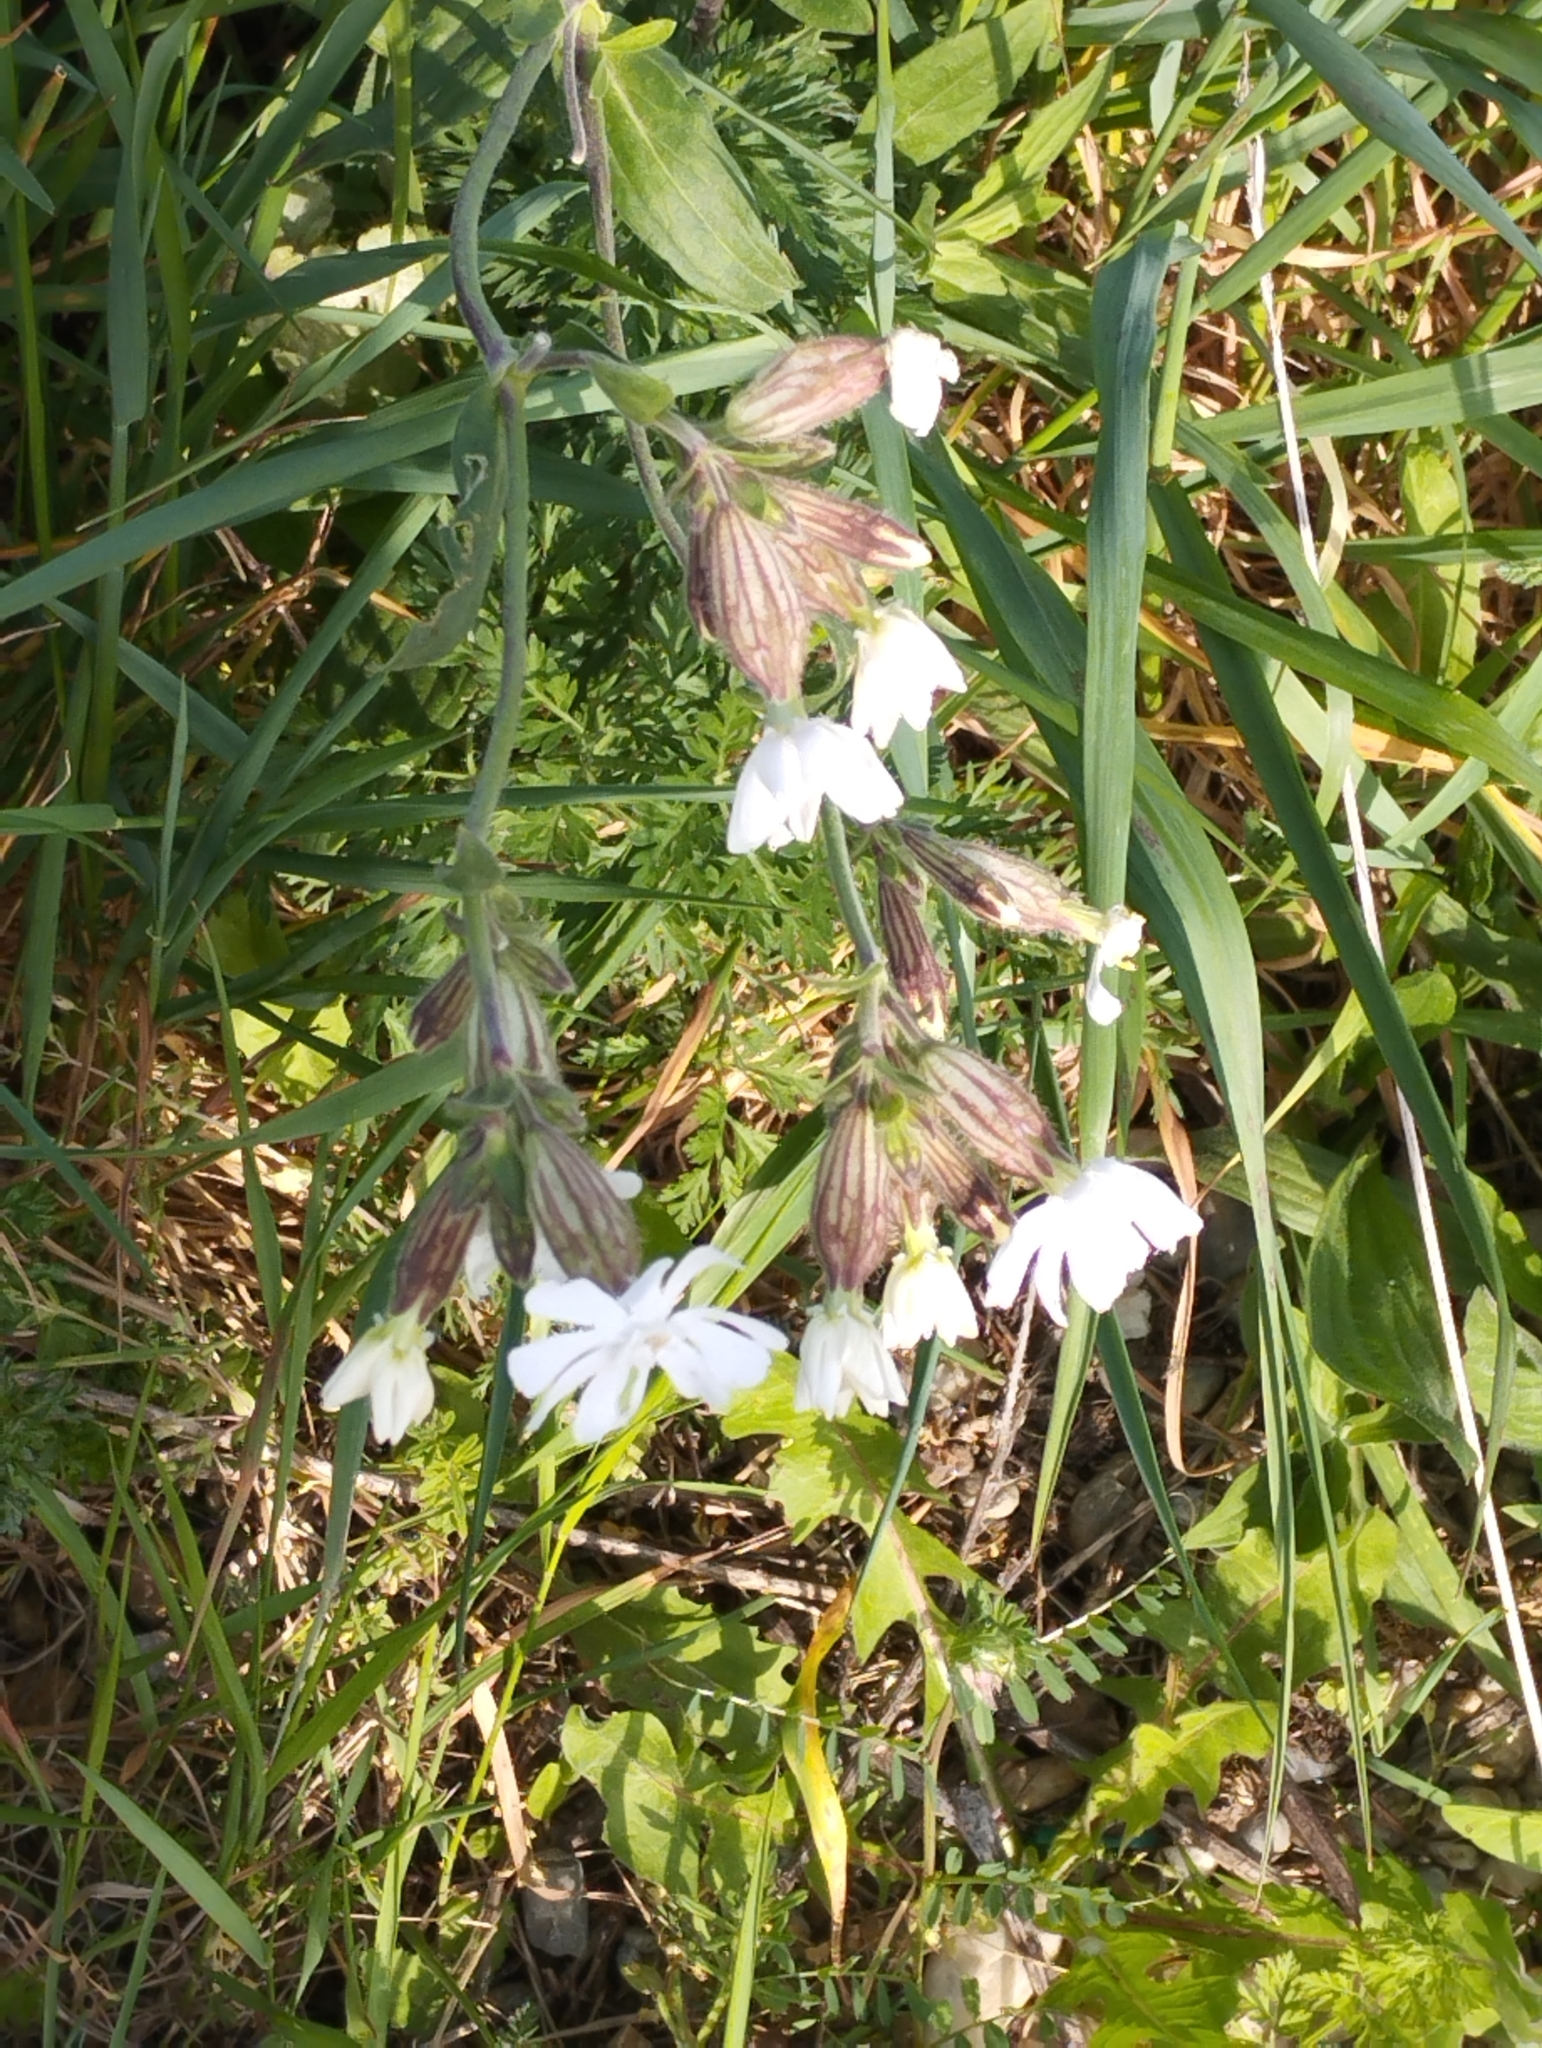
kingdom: Plantae
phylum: Tracheophyta
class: Magnoliopsida
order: Caryophyllales
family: Caryophyllaceae
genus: Silene
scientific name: Silene latifolia
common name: White campion
